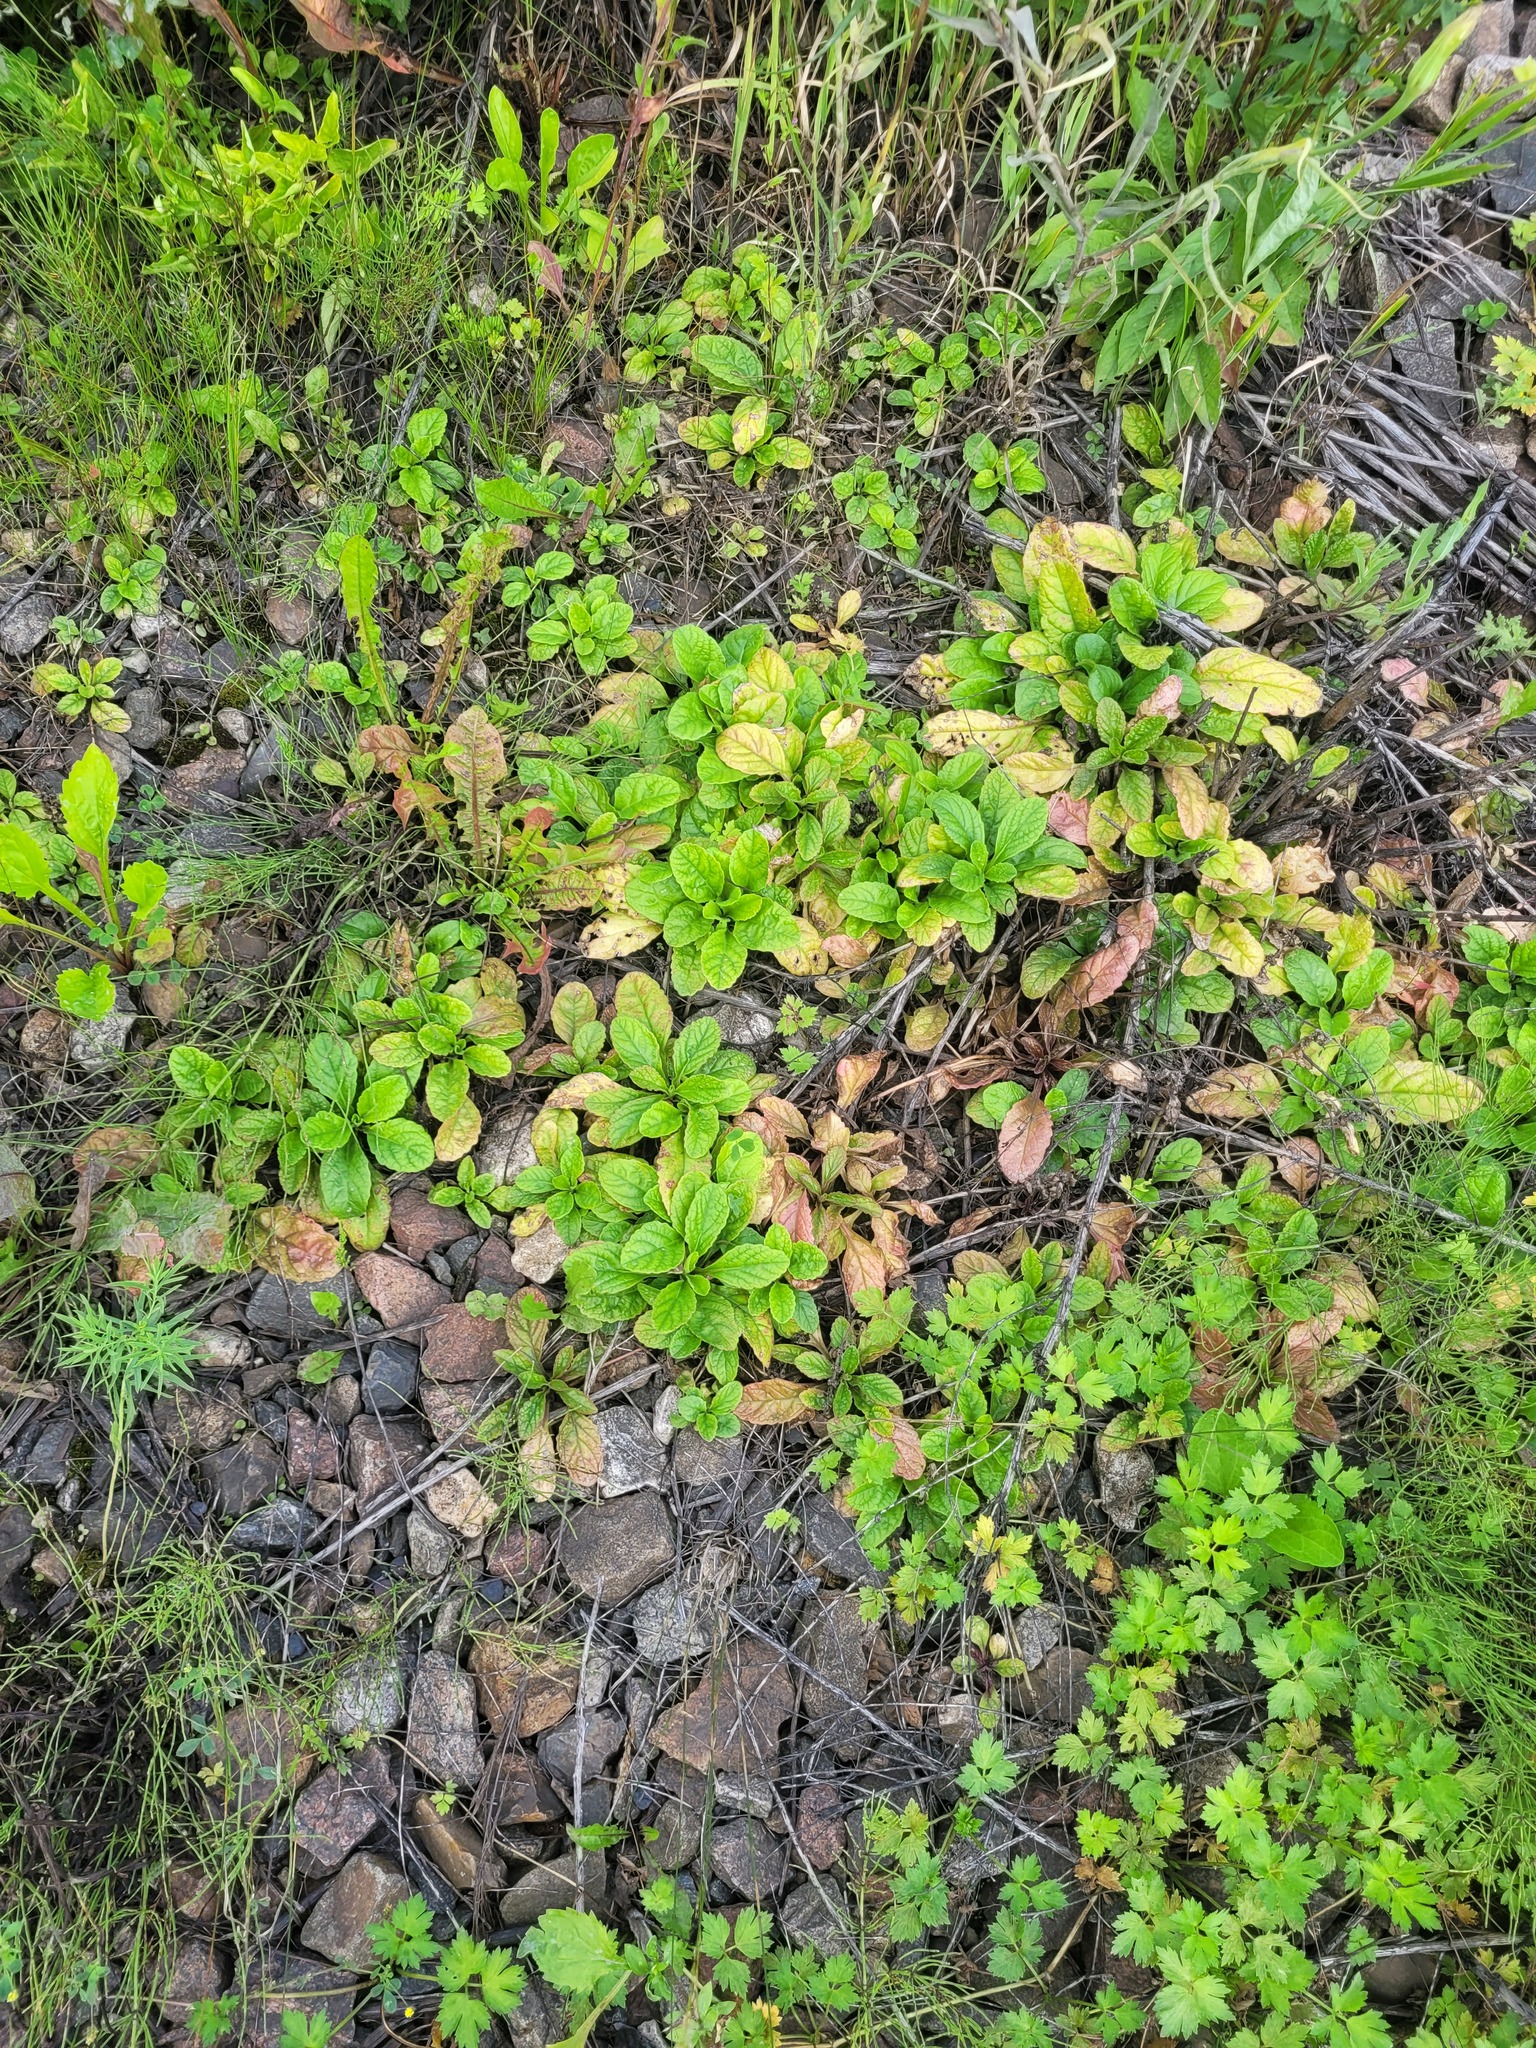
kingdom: Plantae
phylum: Tracheophyta
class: Magnoliopsida
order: Lamiales
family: Lamiaceae
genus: Ajuga
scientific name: Ajuga reptans
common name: Bugle
